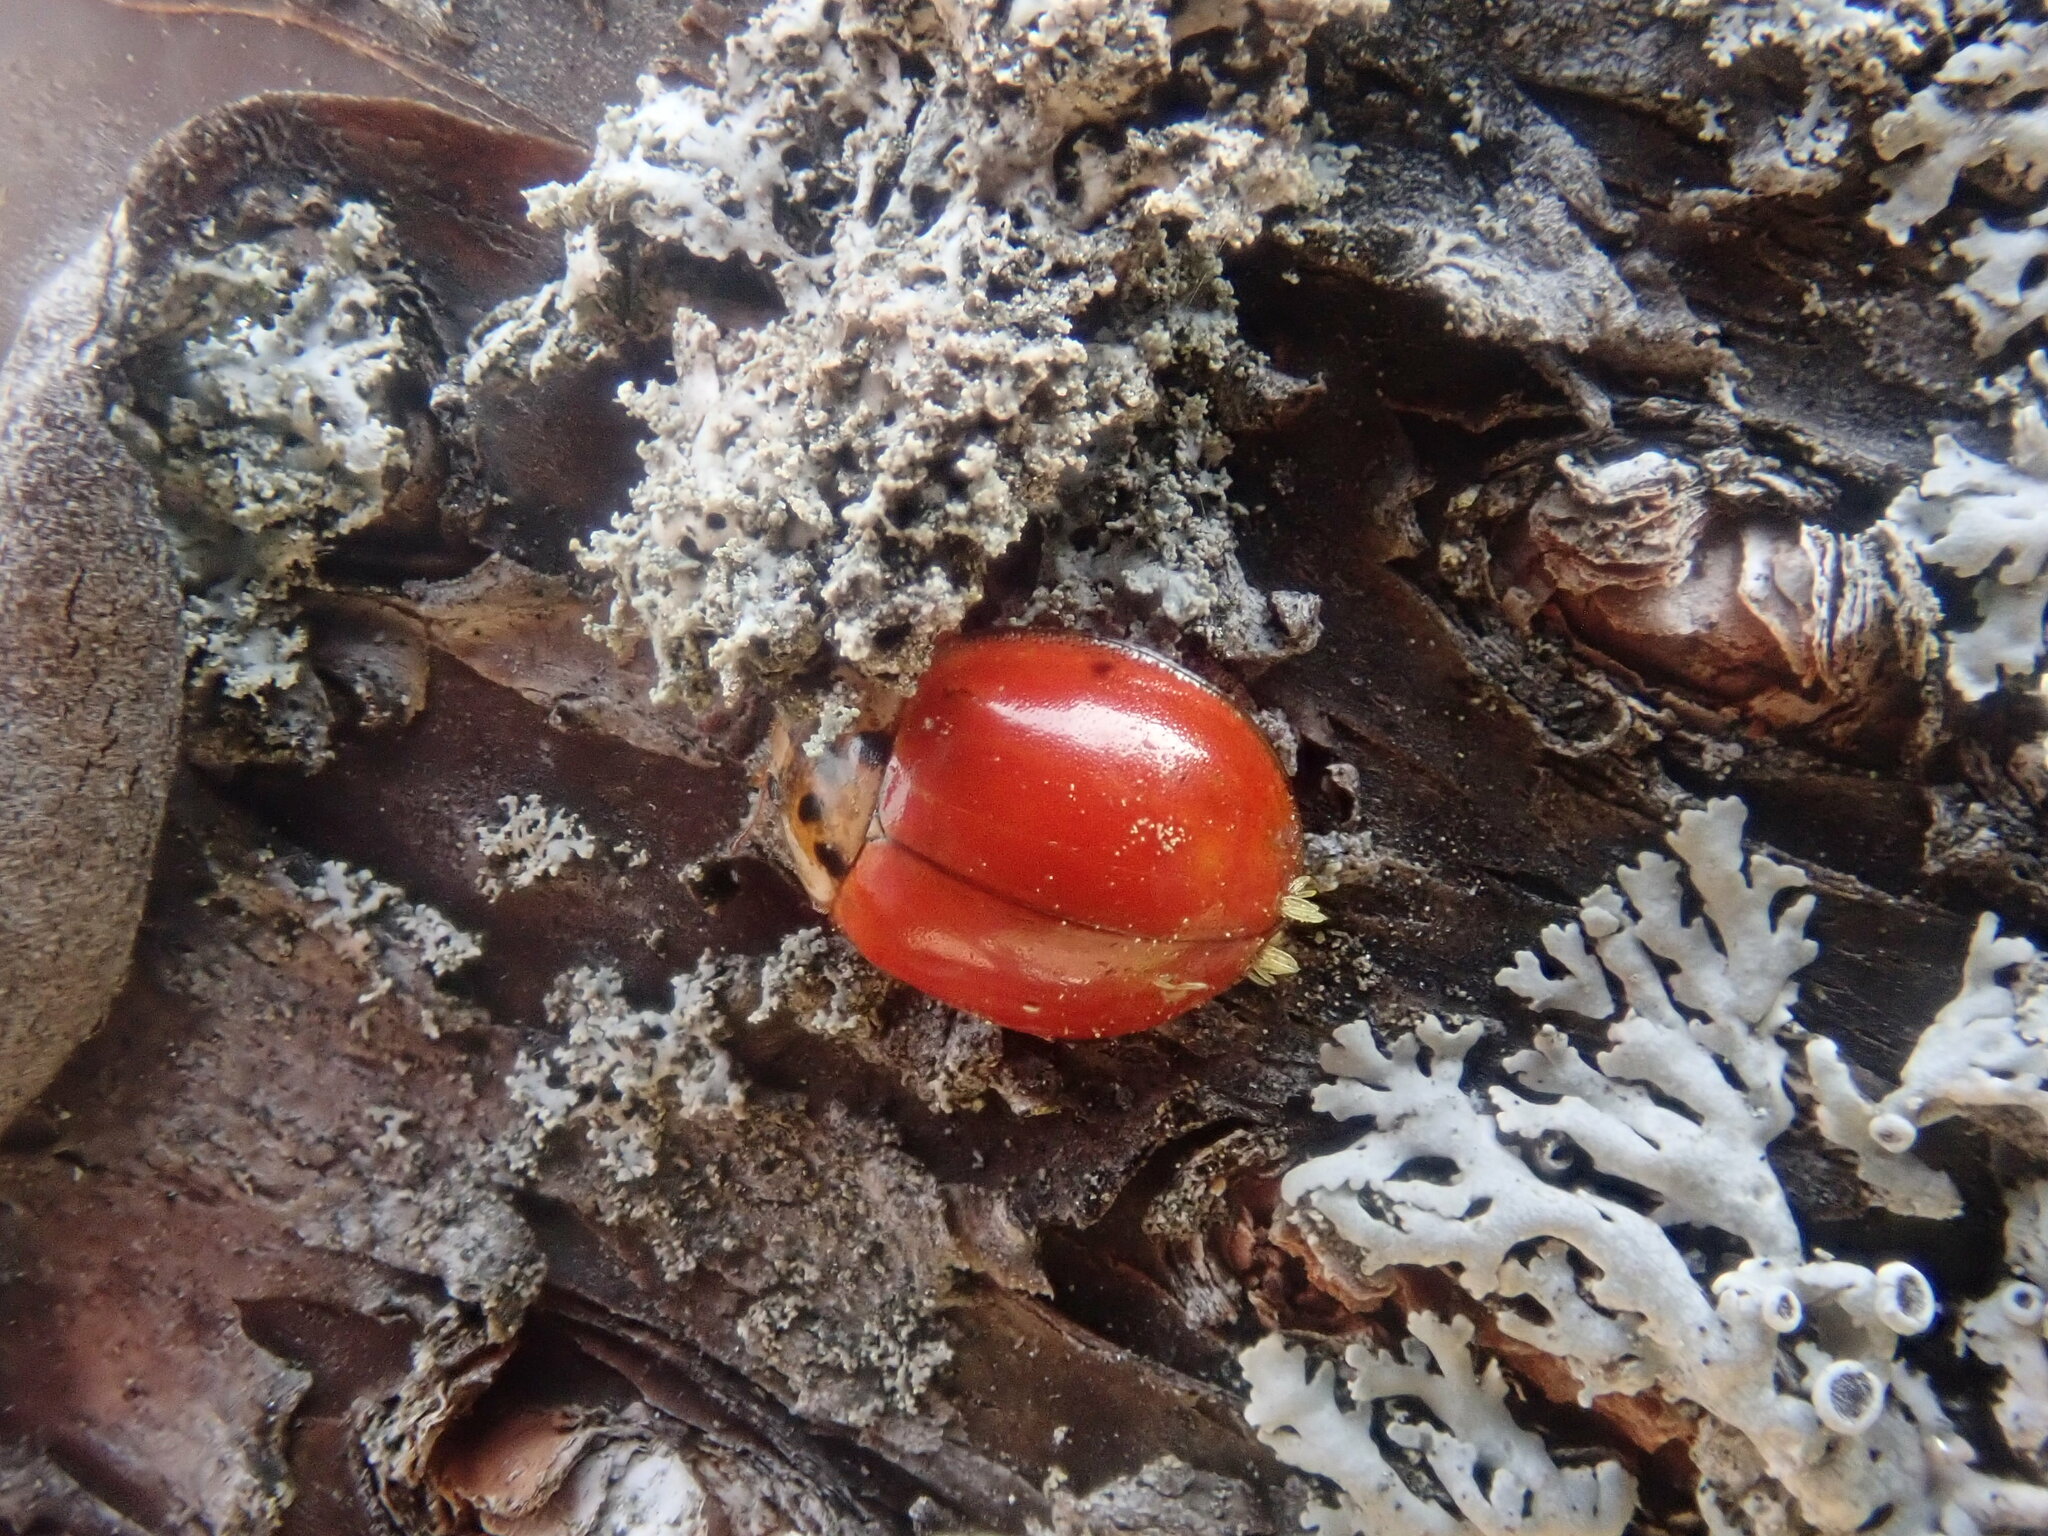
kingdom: Animalia
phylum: Arthropoda
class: Insecta
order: Coleoptera
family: Coccinellidae
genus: Harmonia
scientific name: Harmonia axyridis
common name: Harlequin ladybird
